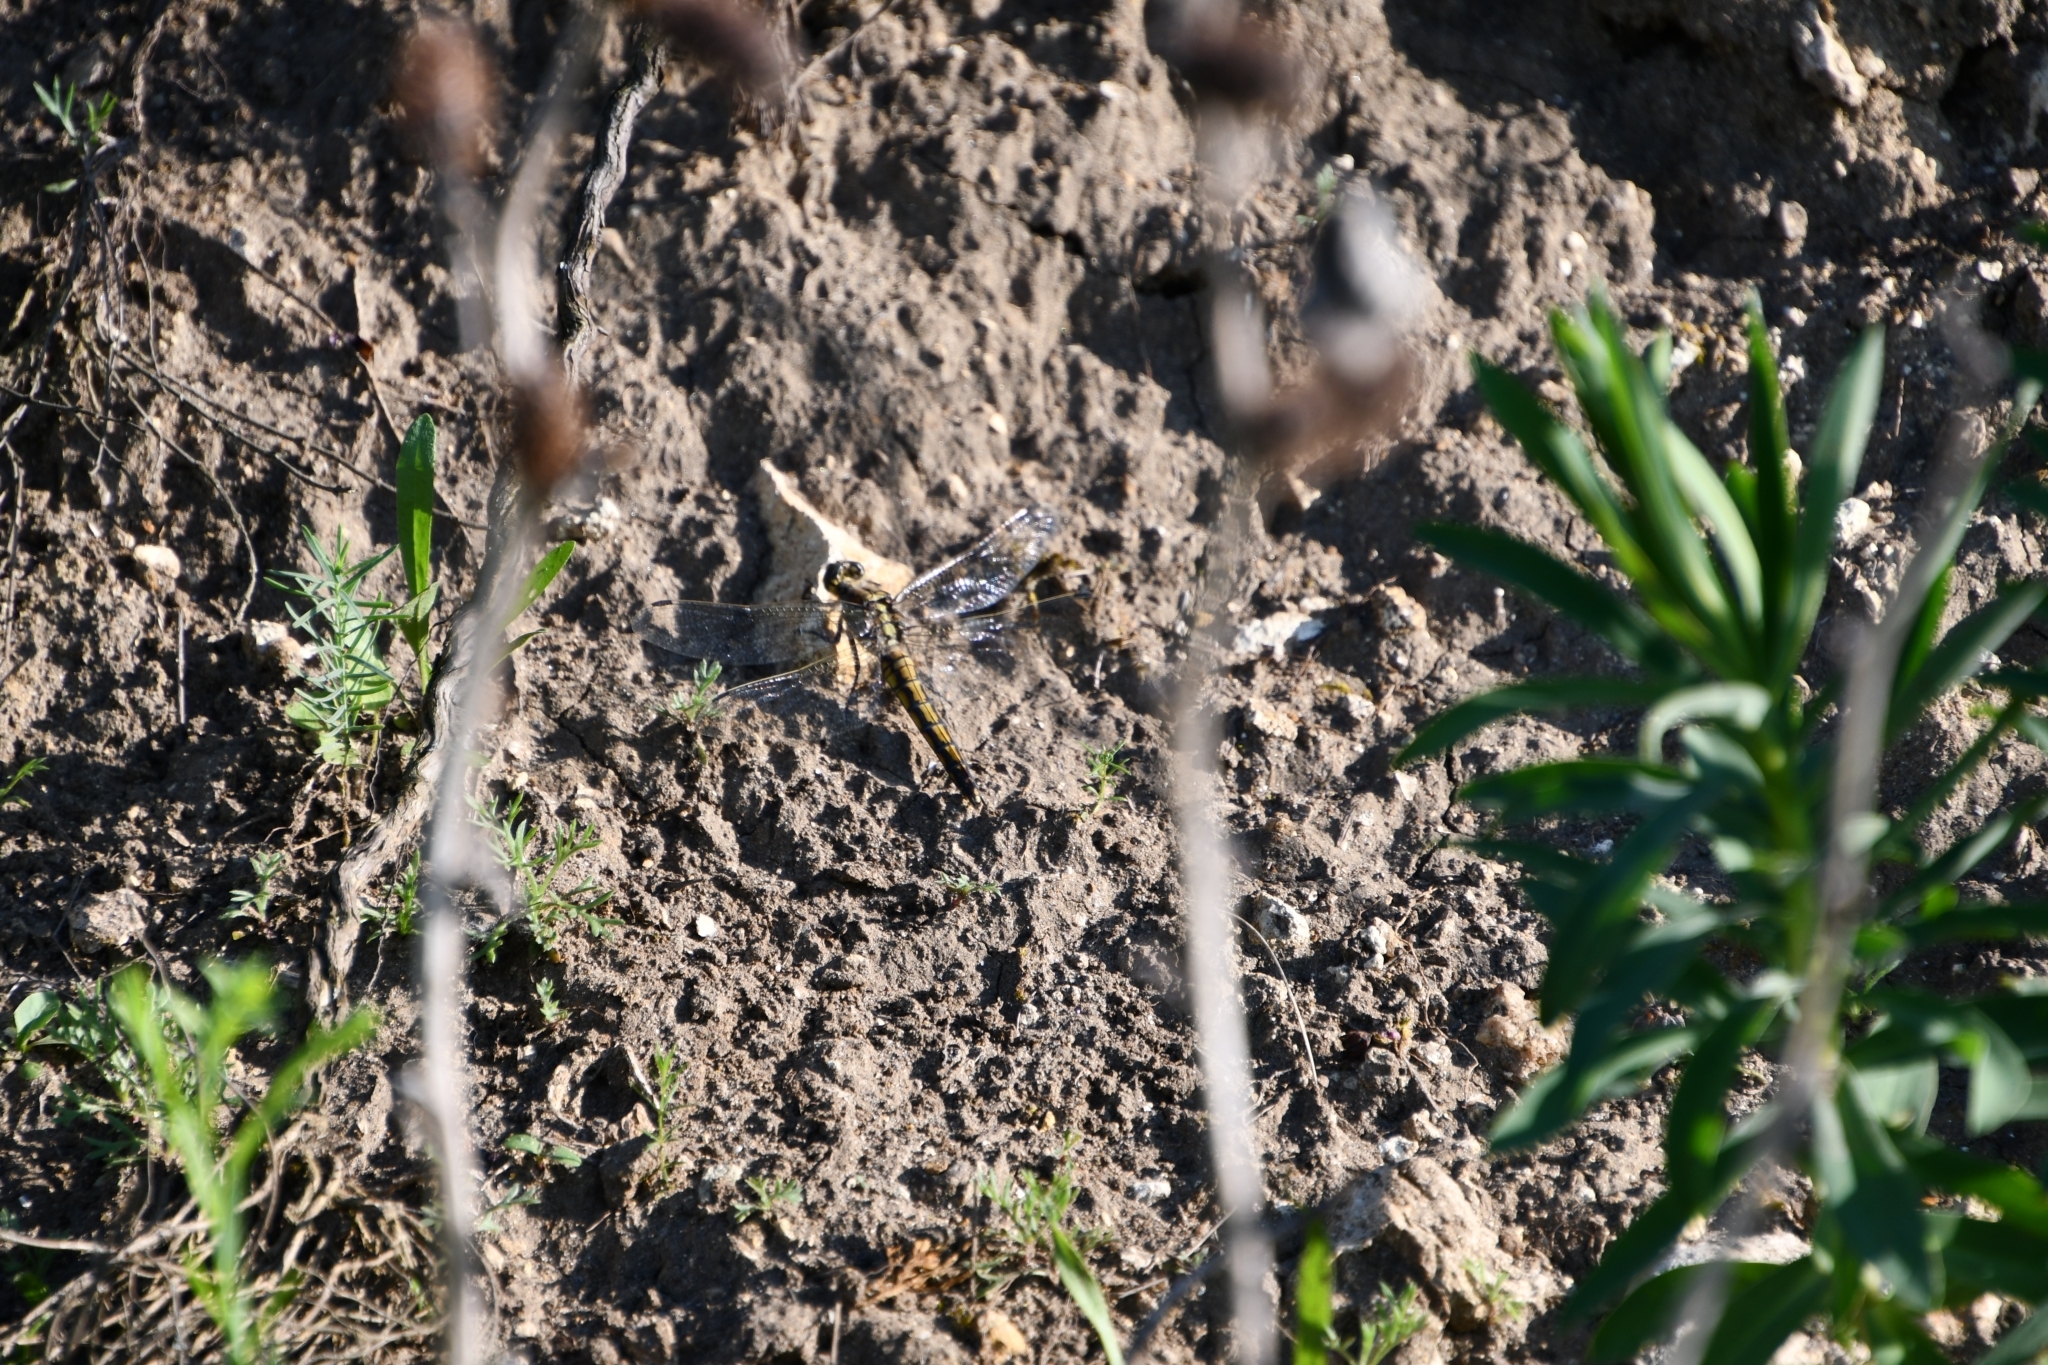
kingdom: Animalia
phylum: Arthropoda
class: Insecta
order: Odonata
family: Libellulidae
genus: Orthetrum
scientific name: Orthetrum cancellatum
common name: Black-tailed skimmer
